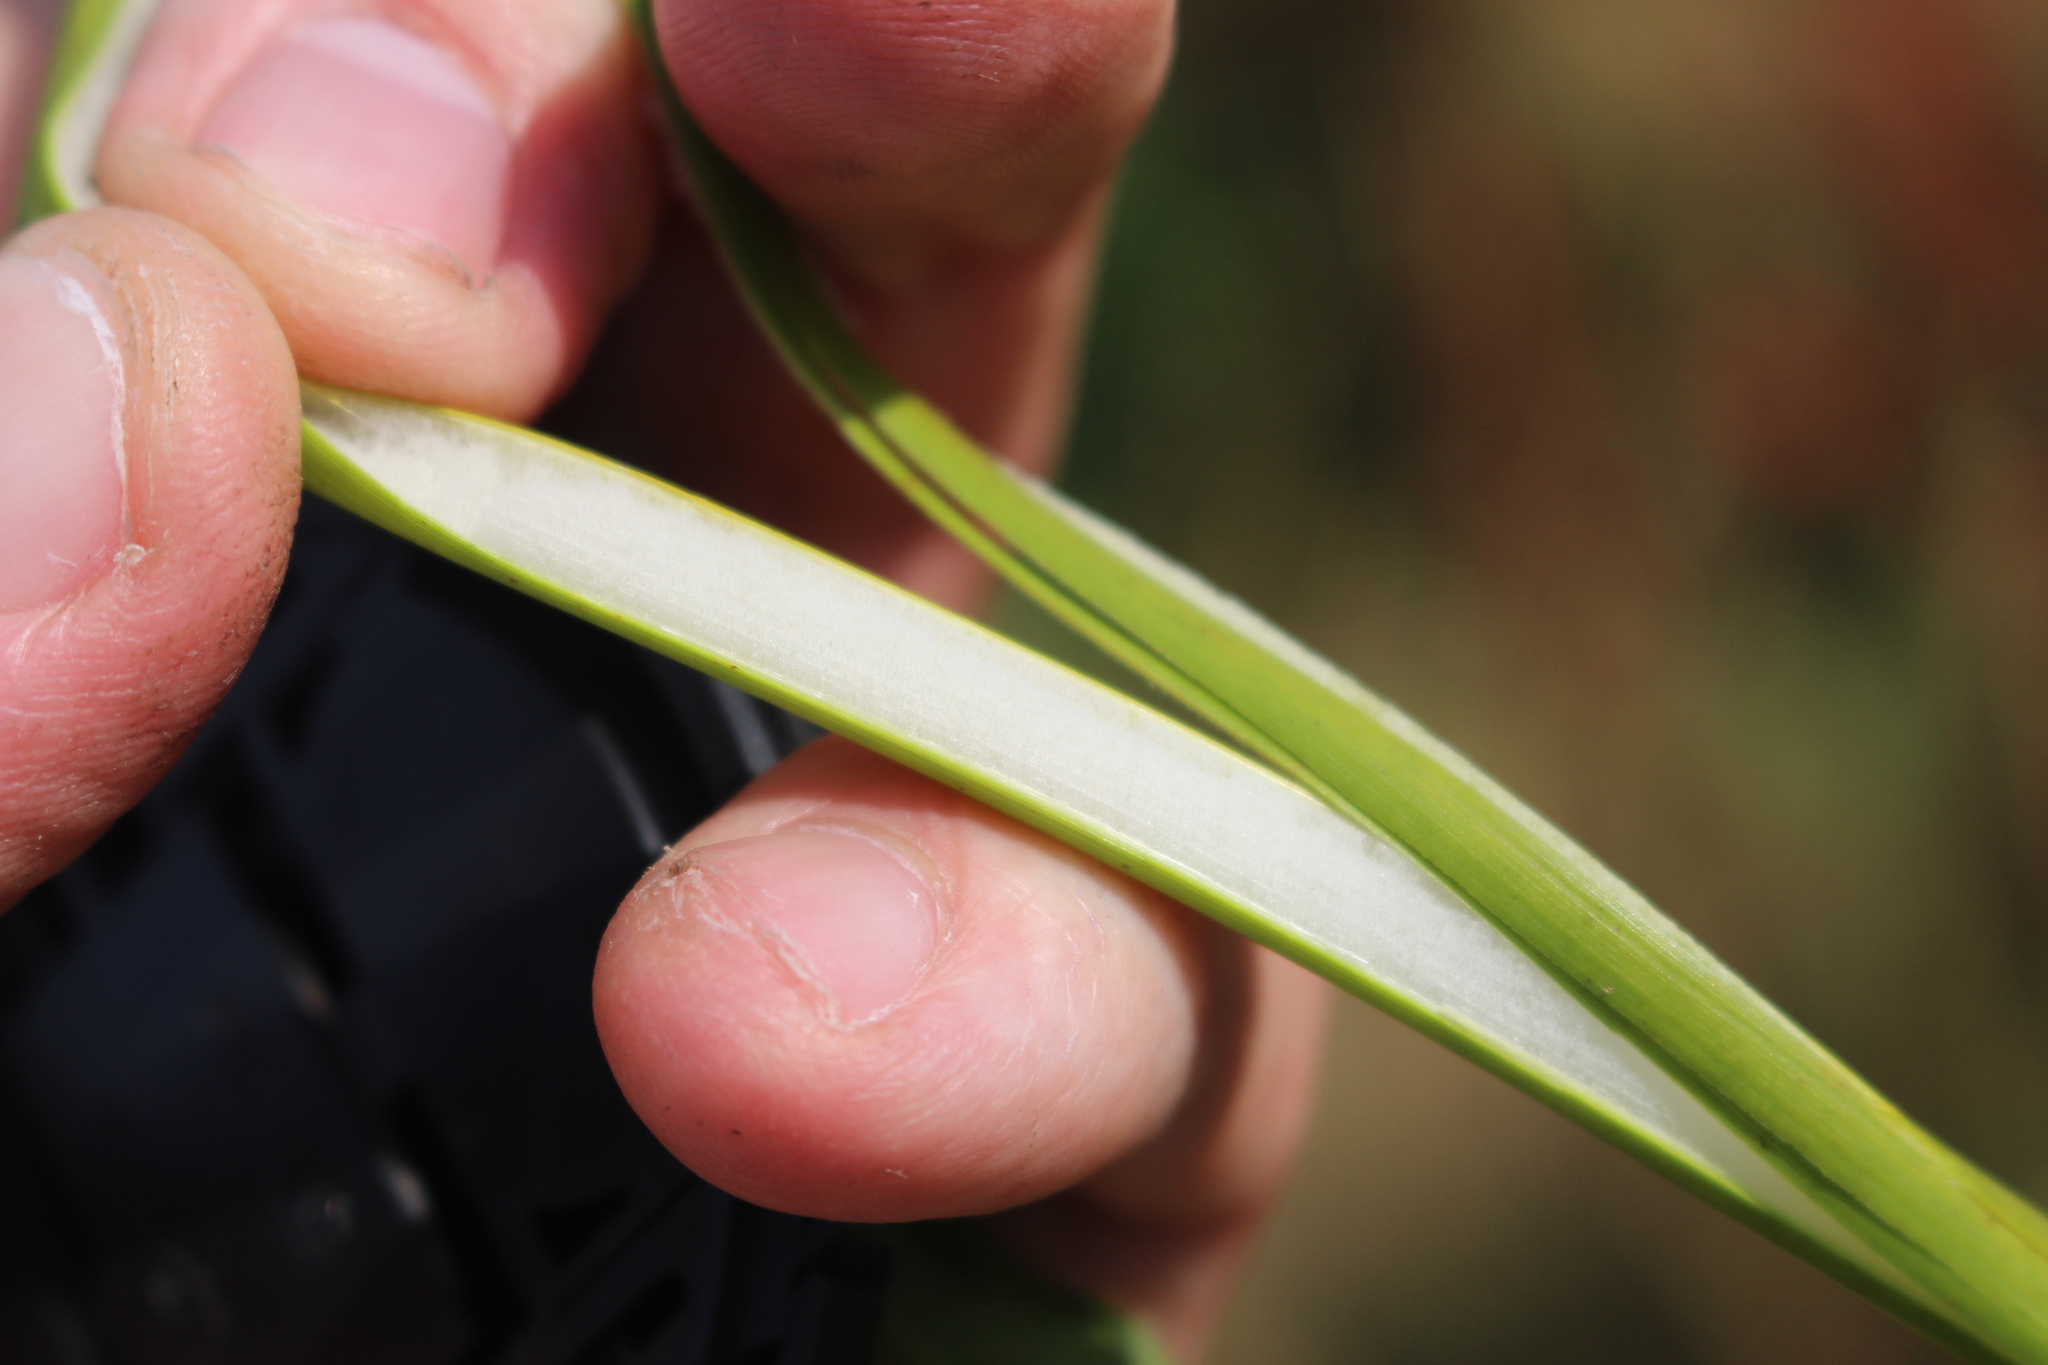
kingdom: Plantae
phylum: Tracheophyta
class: Liliopsida
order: Poales
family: Juncaceae
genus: Juncus
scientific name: Juncus pallidus
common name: Great soft-rush
